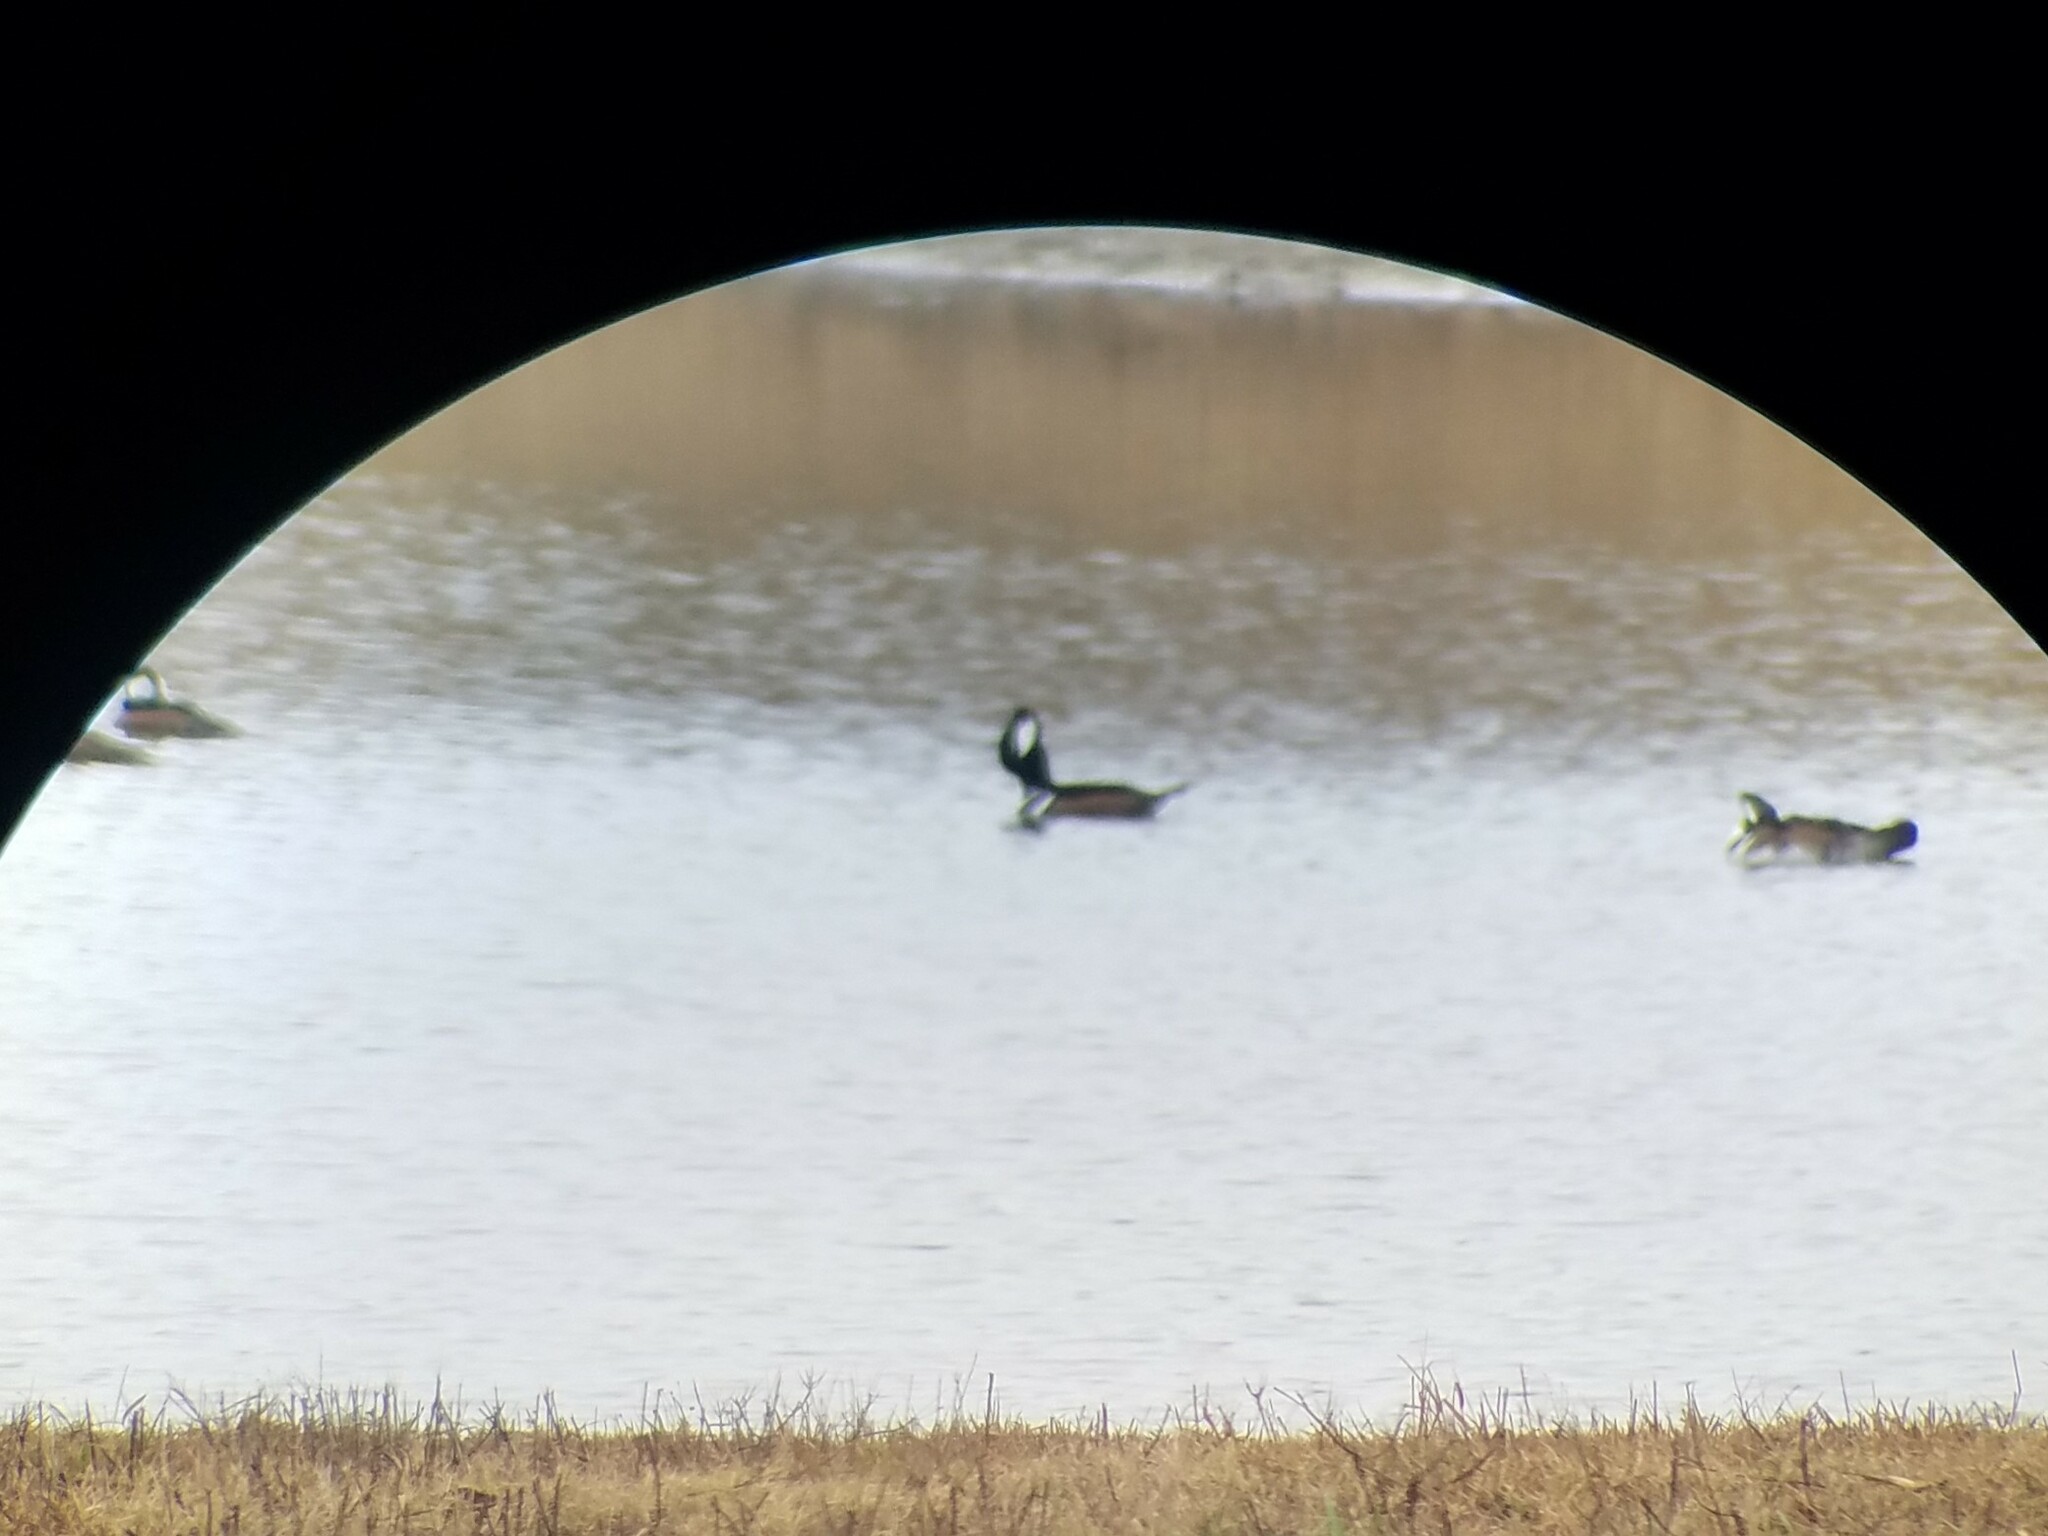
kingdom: Animalia
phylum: Chordata
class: Aves
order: Anseriformes
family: Anatidae
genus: Lophodytes
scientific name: Lophodytes cucullatus
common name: Hooded merganser
